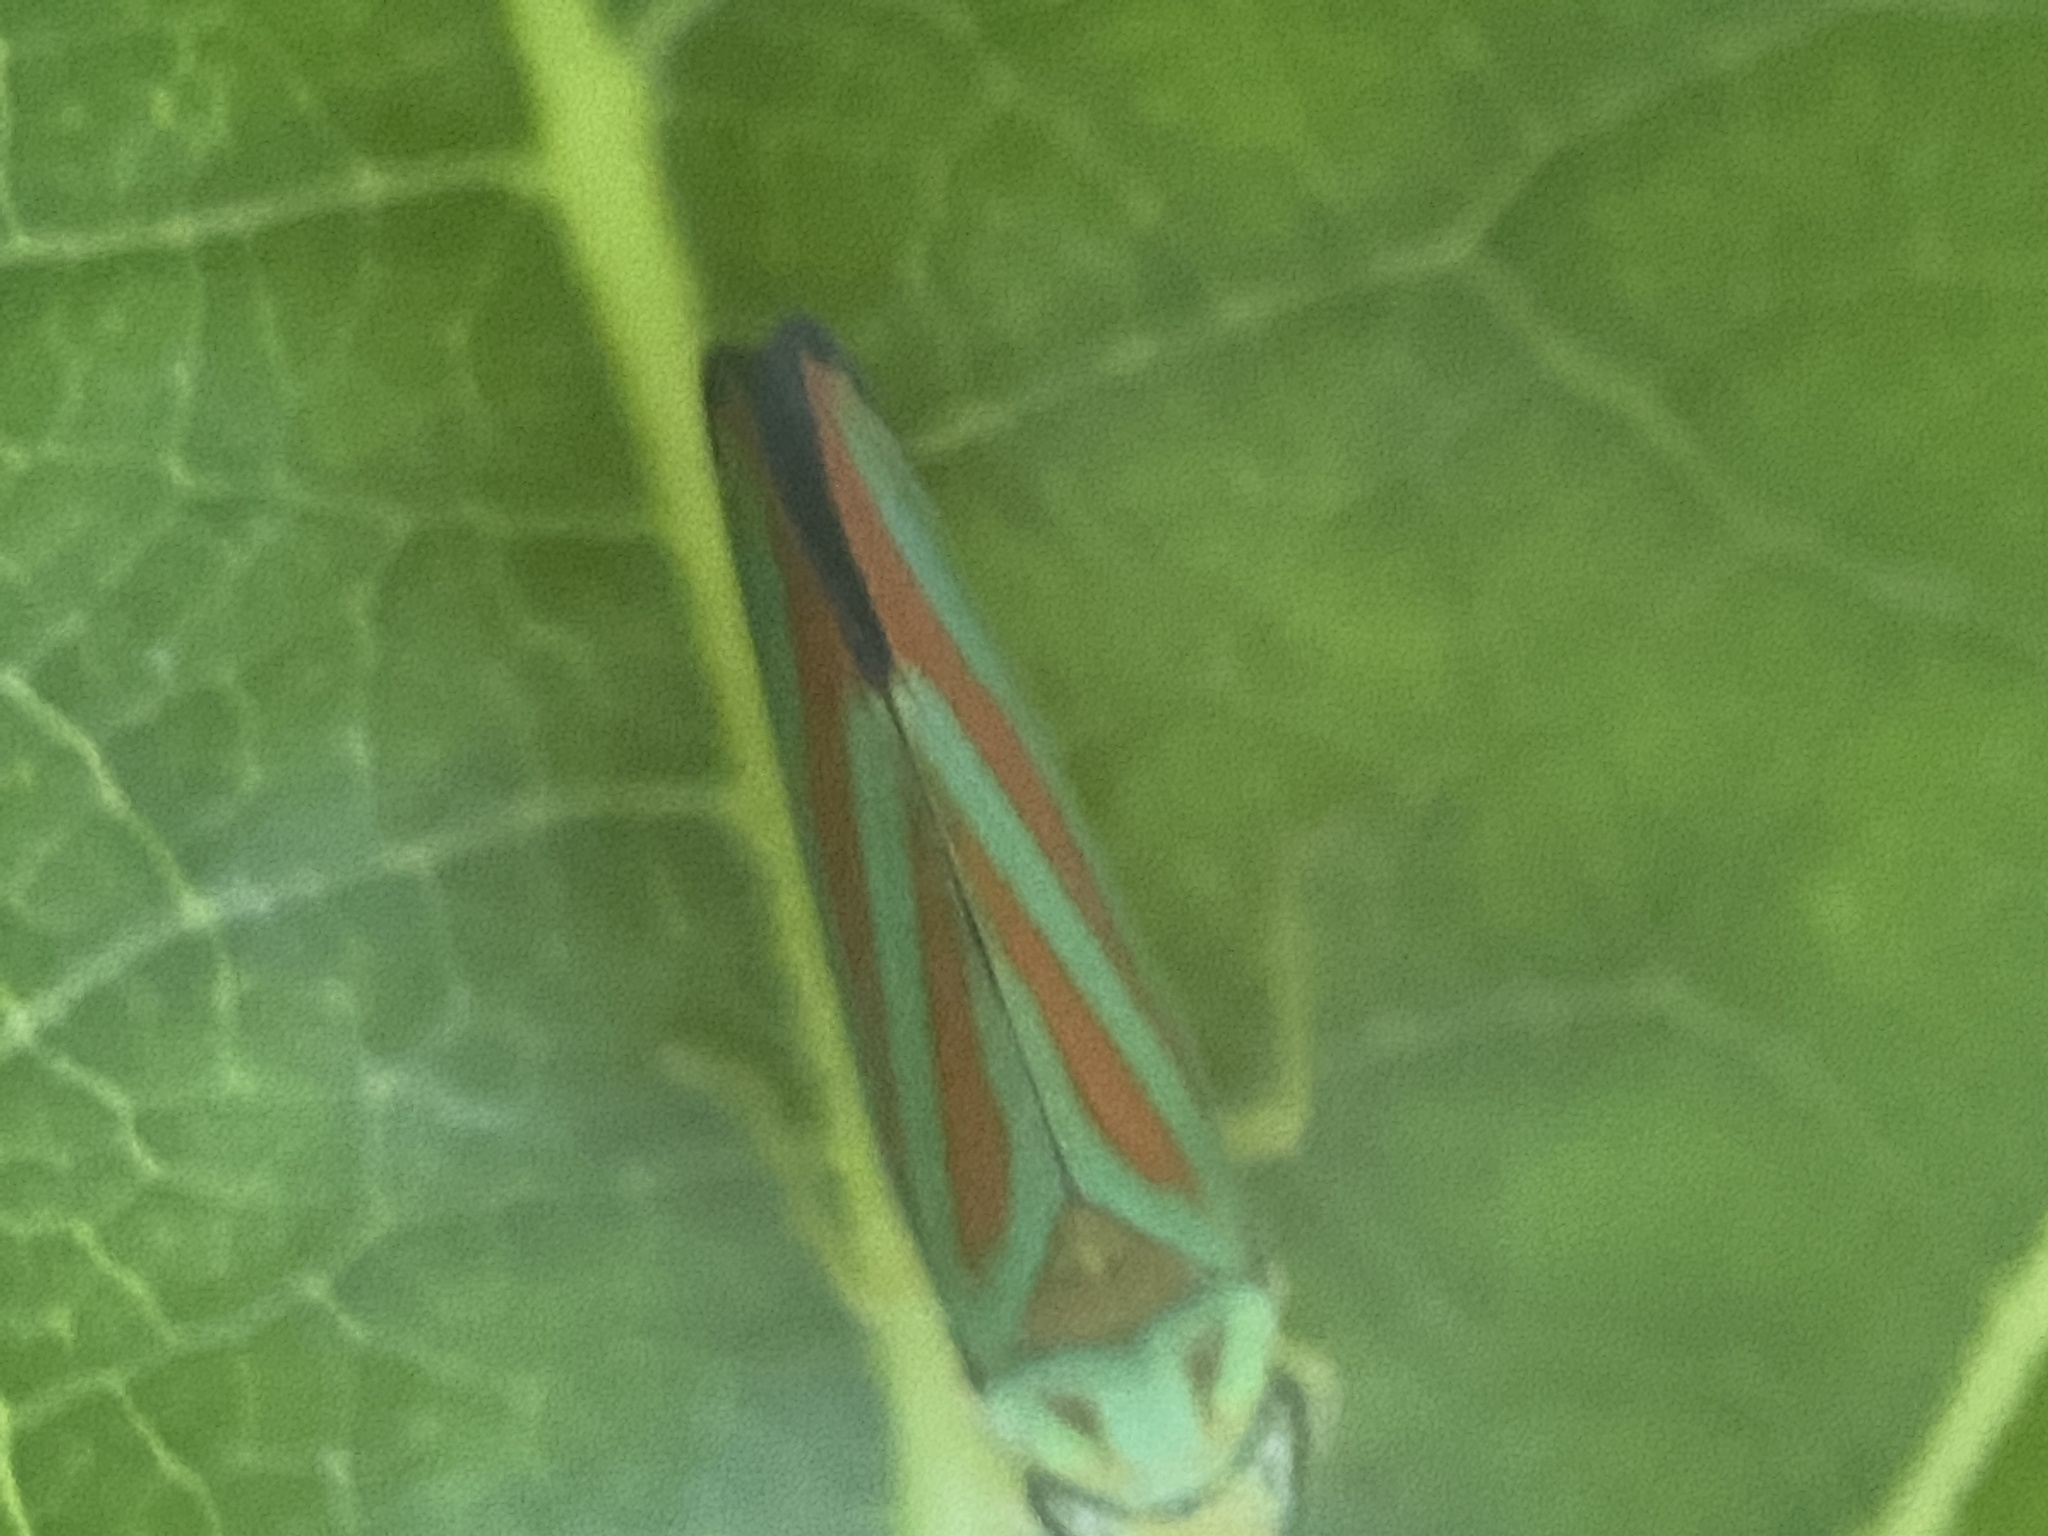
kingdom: Animalia
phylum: Arthropoda
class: Insecta
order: Hemiptera
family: Cicadellidae
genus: Graphocephala
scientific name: Graphocephala coccinea
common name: Candy-striped leafhopper
